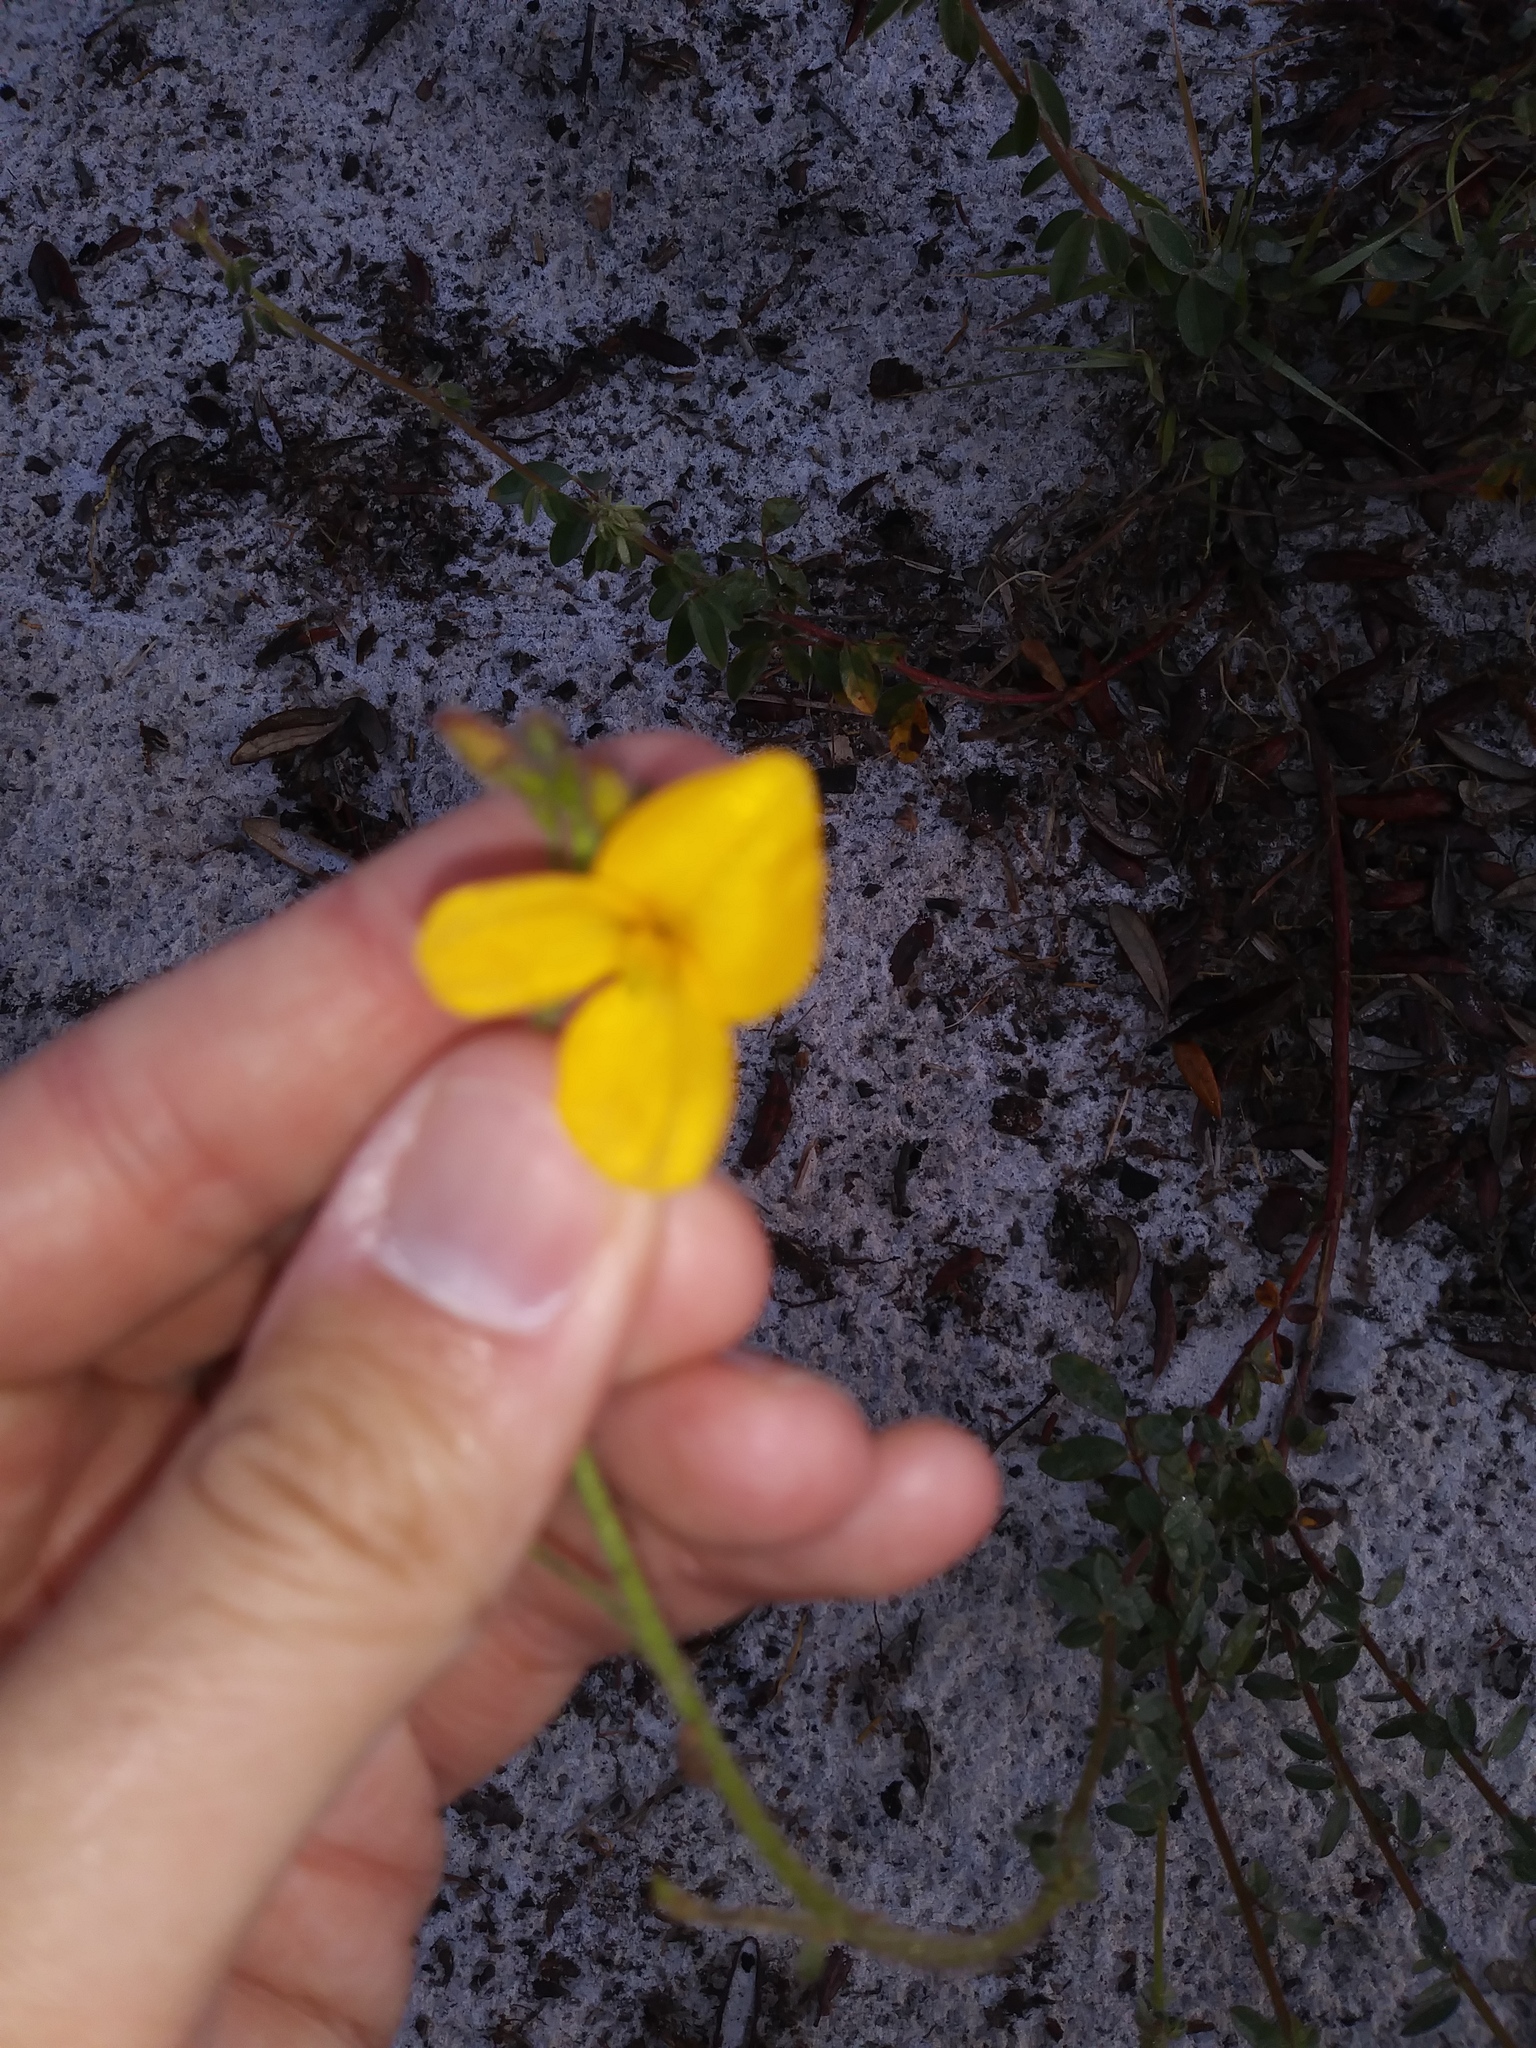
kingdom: Plantae
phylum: Tracheophyta
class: Magnoliopsida
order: Fabales
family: Fabaceae
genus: Chapmannia
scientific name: Chapmannia floridana
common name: Alicia
